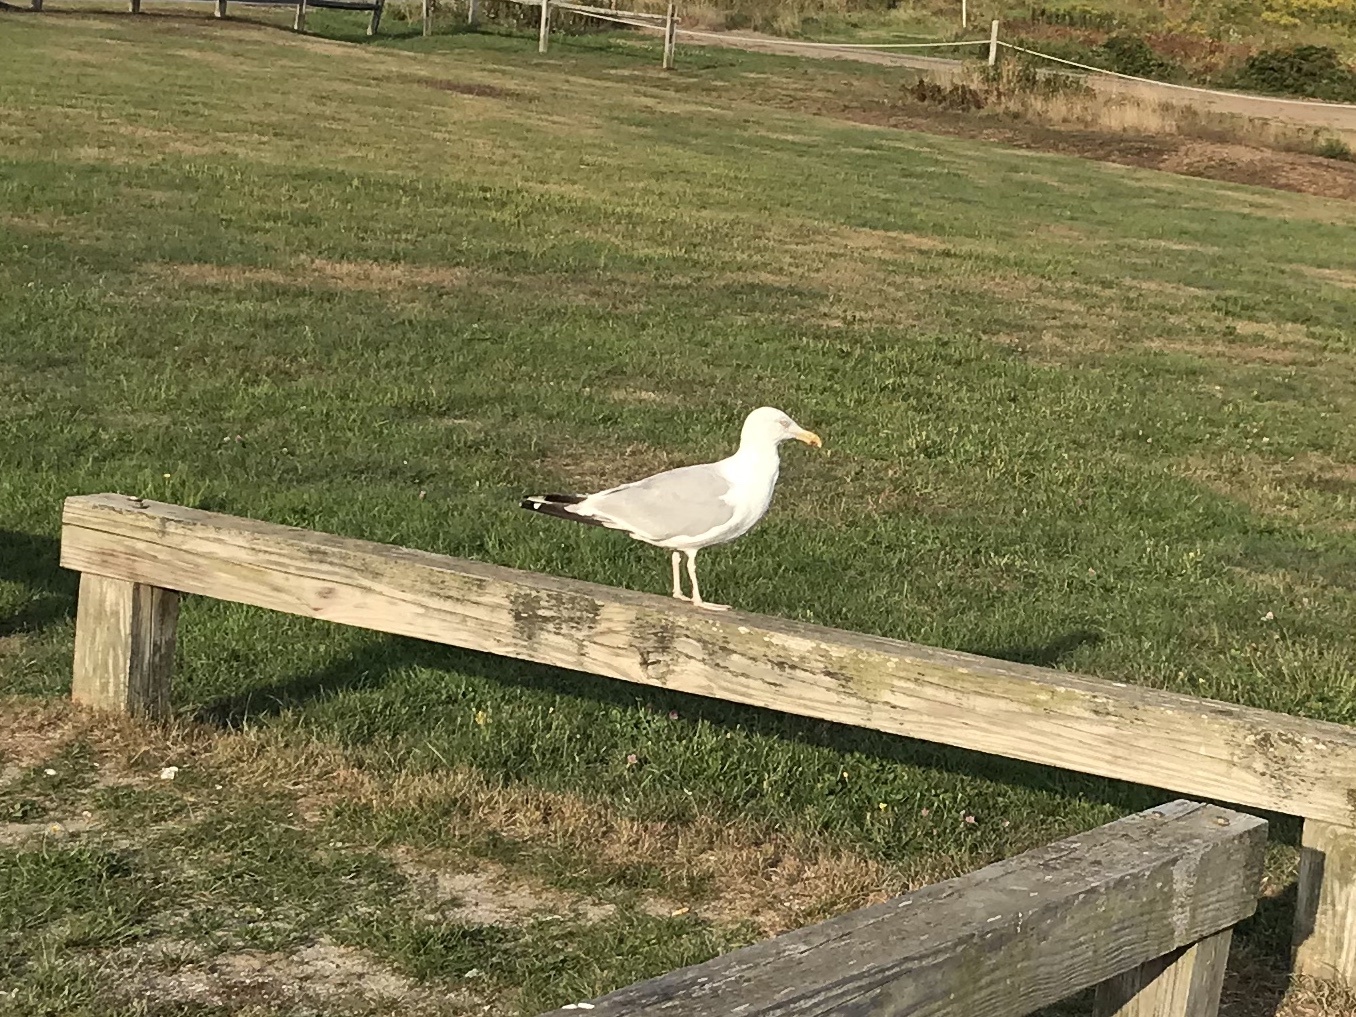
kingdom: Animalia
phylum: Chordata
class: Aves
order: Charadriiformes
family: Laridae
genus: Larus
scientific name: Larus smithsonianus
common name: American herring gull
